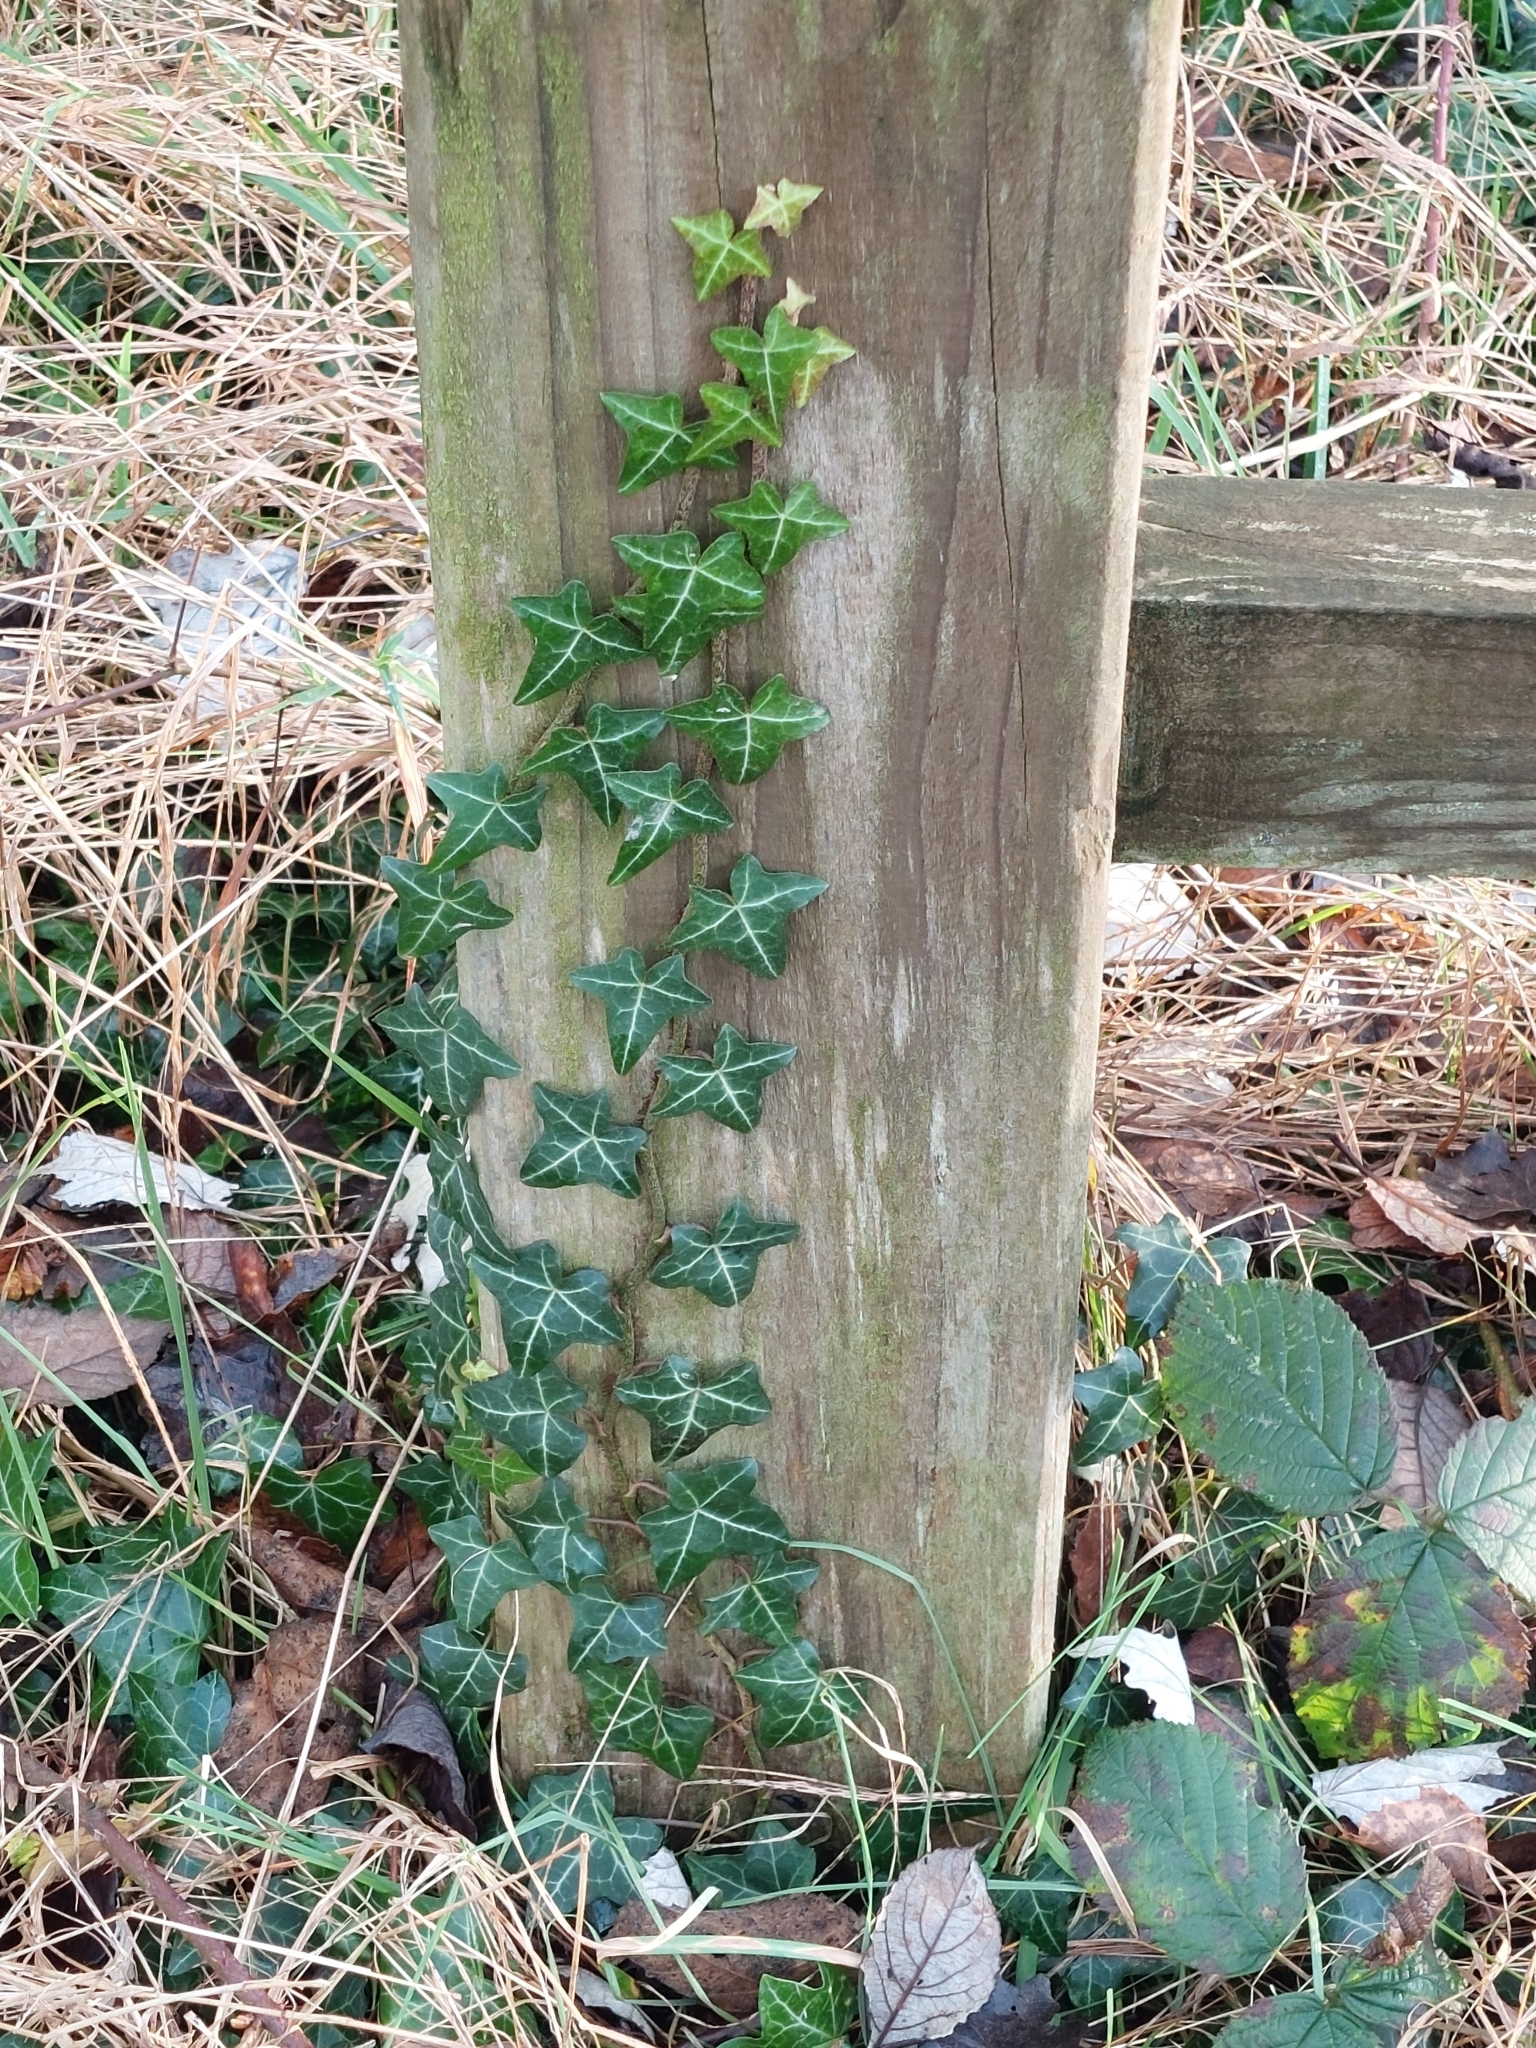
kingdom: Plantae
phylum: Tracheophyta
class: Magnoliopsida
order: Apiales
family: Araliaceae
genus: Hedera
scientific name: Hedera helix
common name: Ivy
